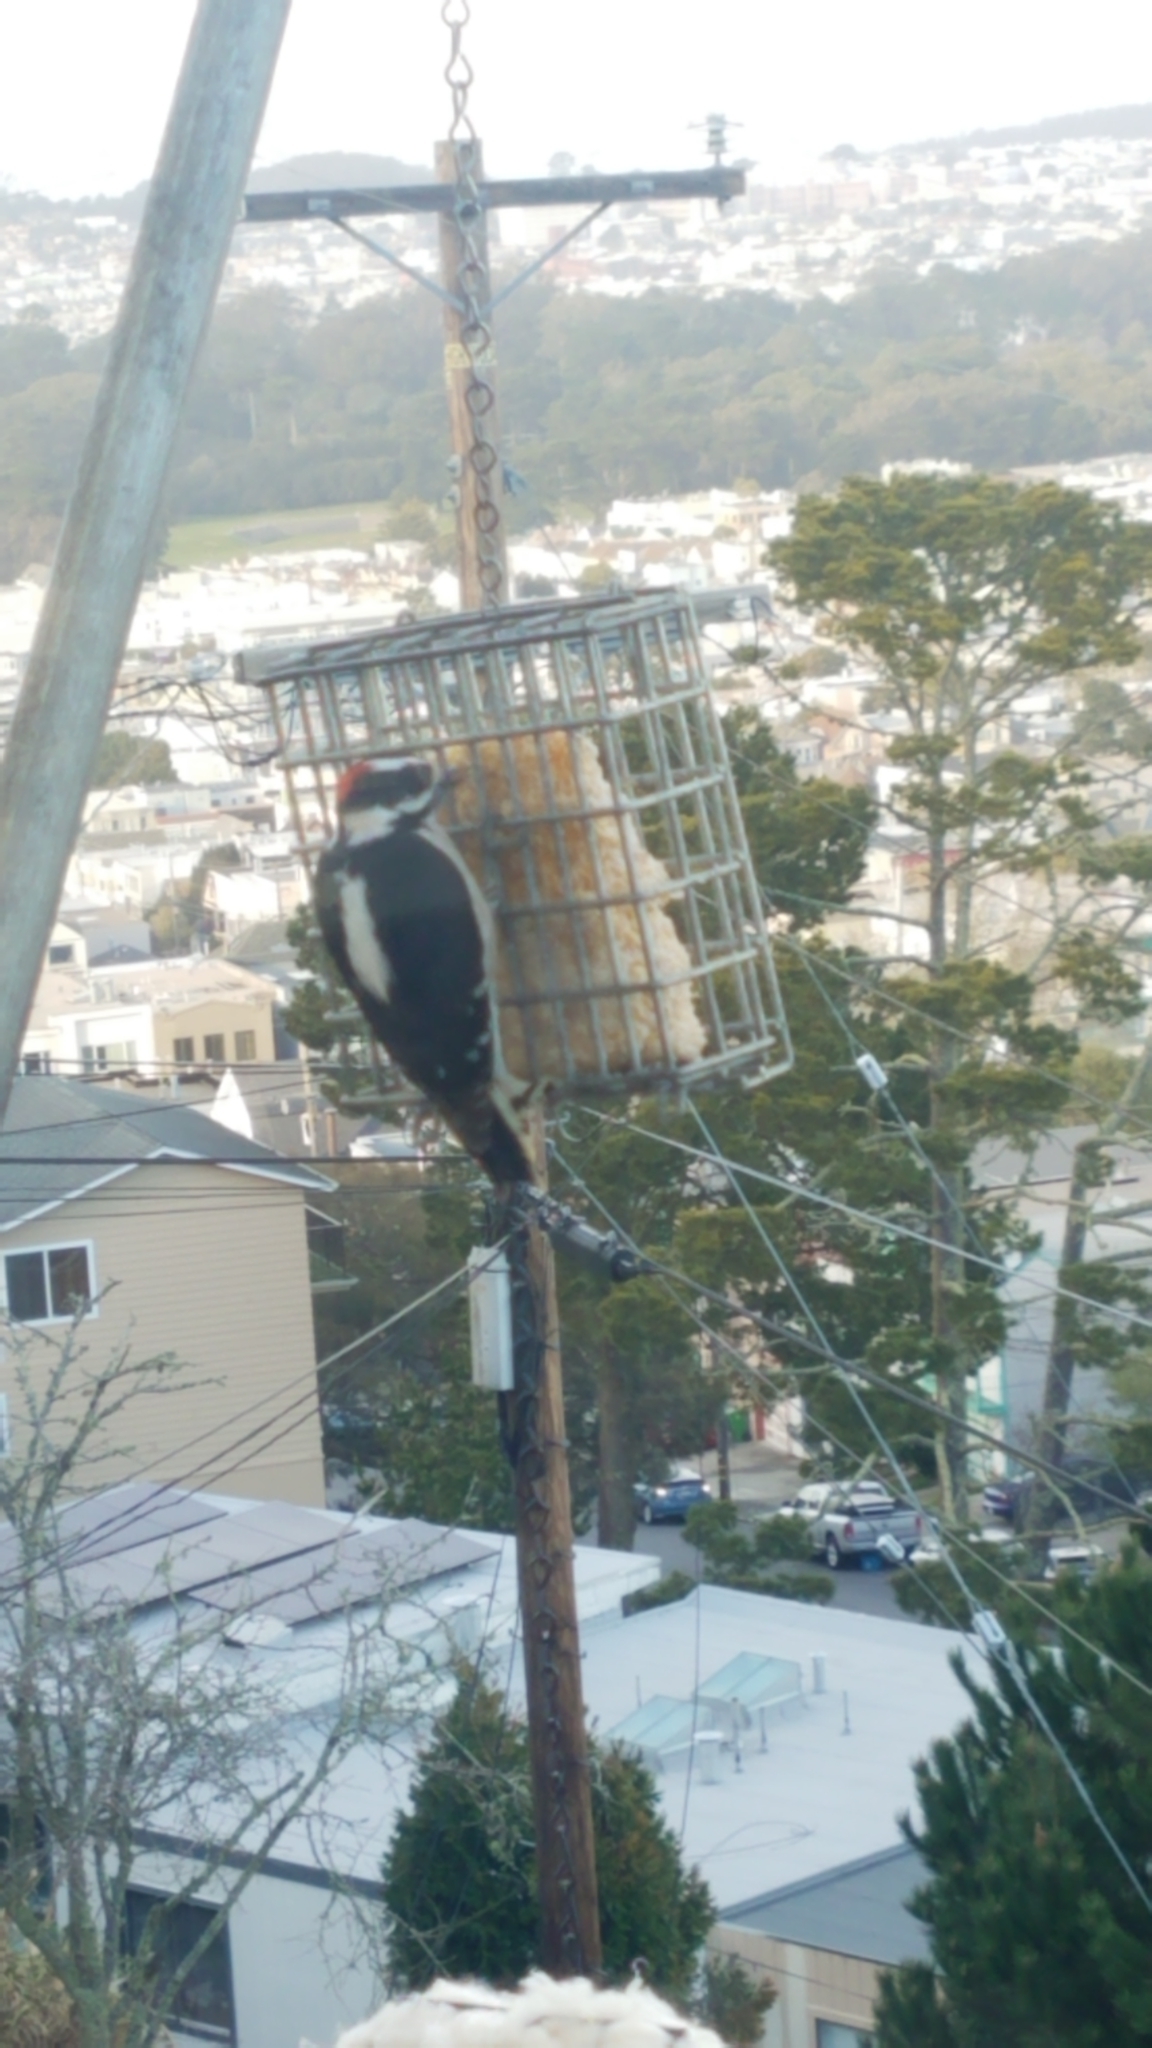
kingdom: Animalia
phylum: Chordata
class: Aves
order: Piciformes
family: Picidae
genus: Dryobates
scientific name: Dryobates pubescens
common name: Downy woodpecker
